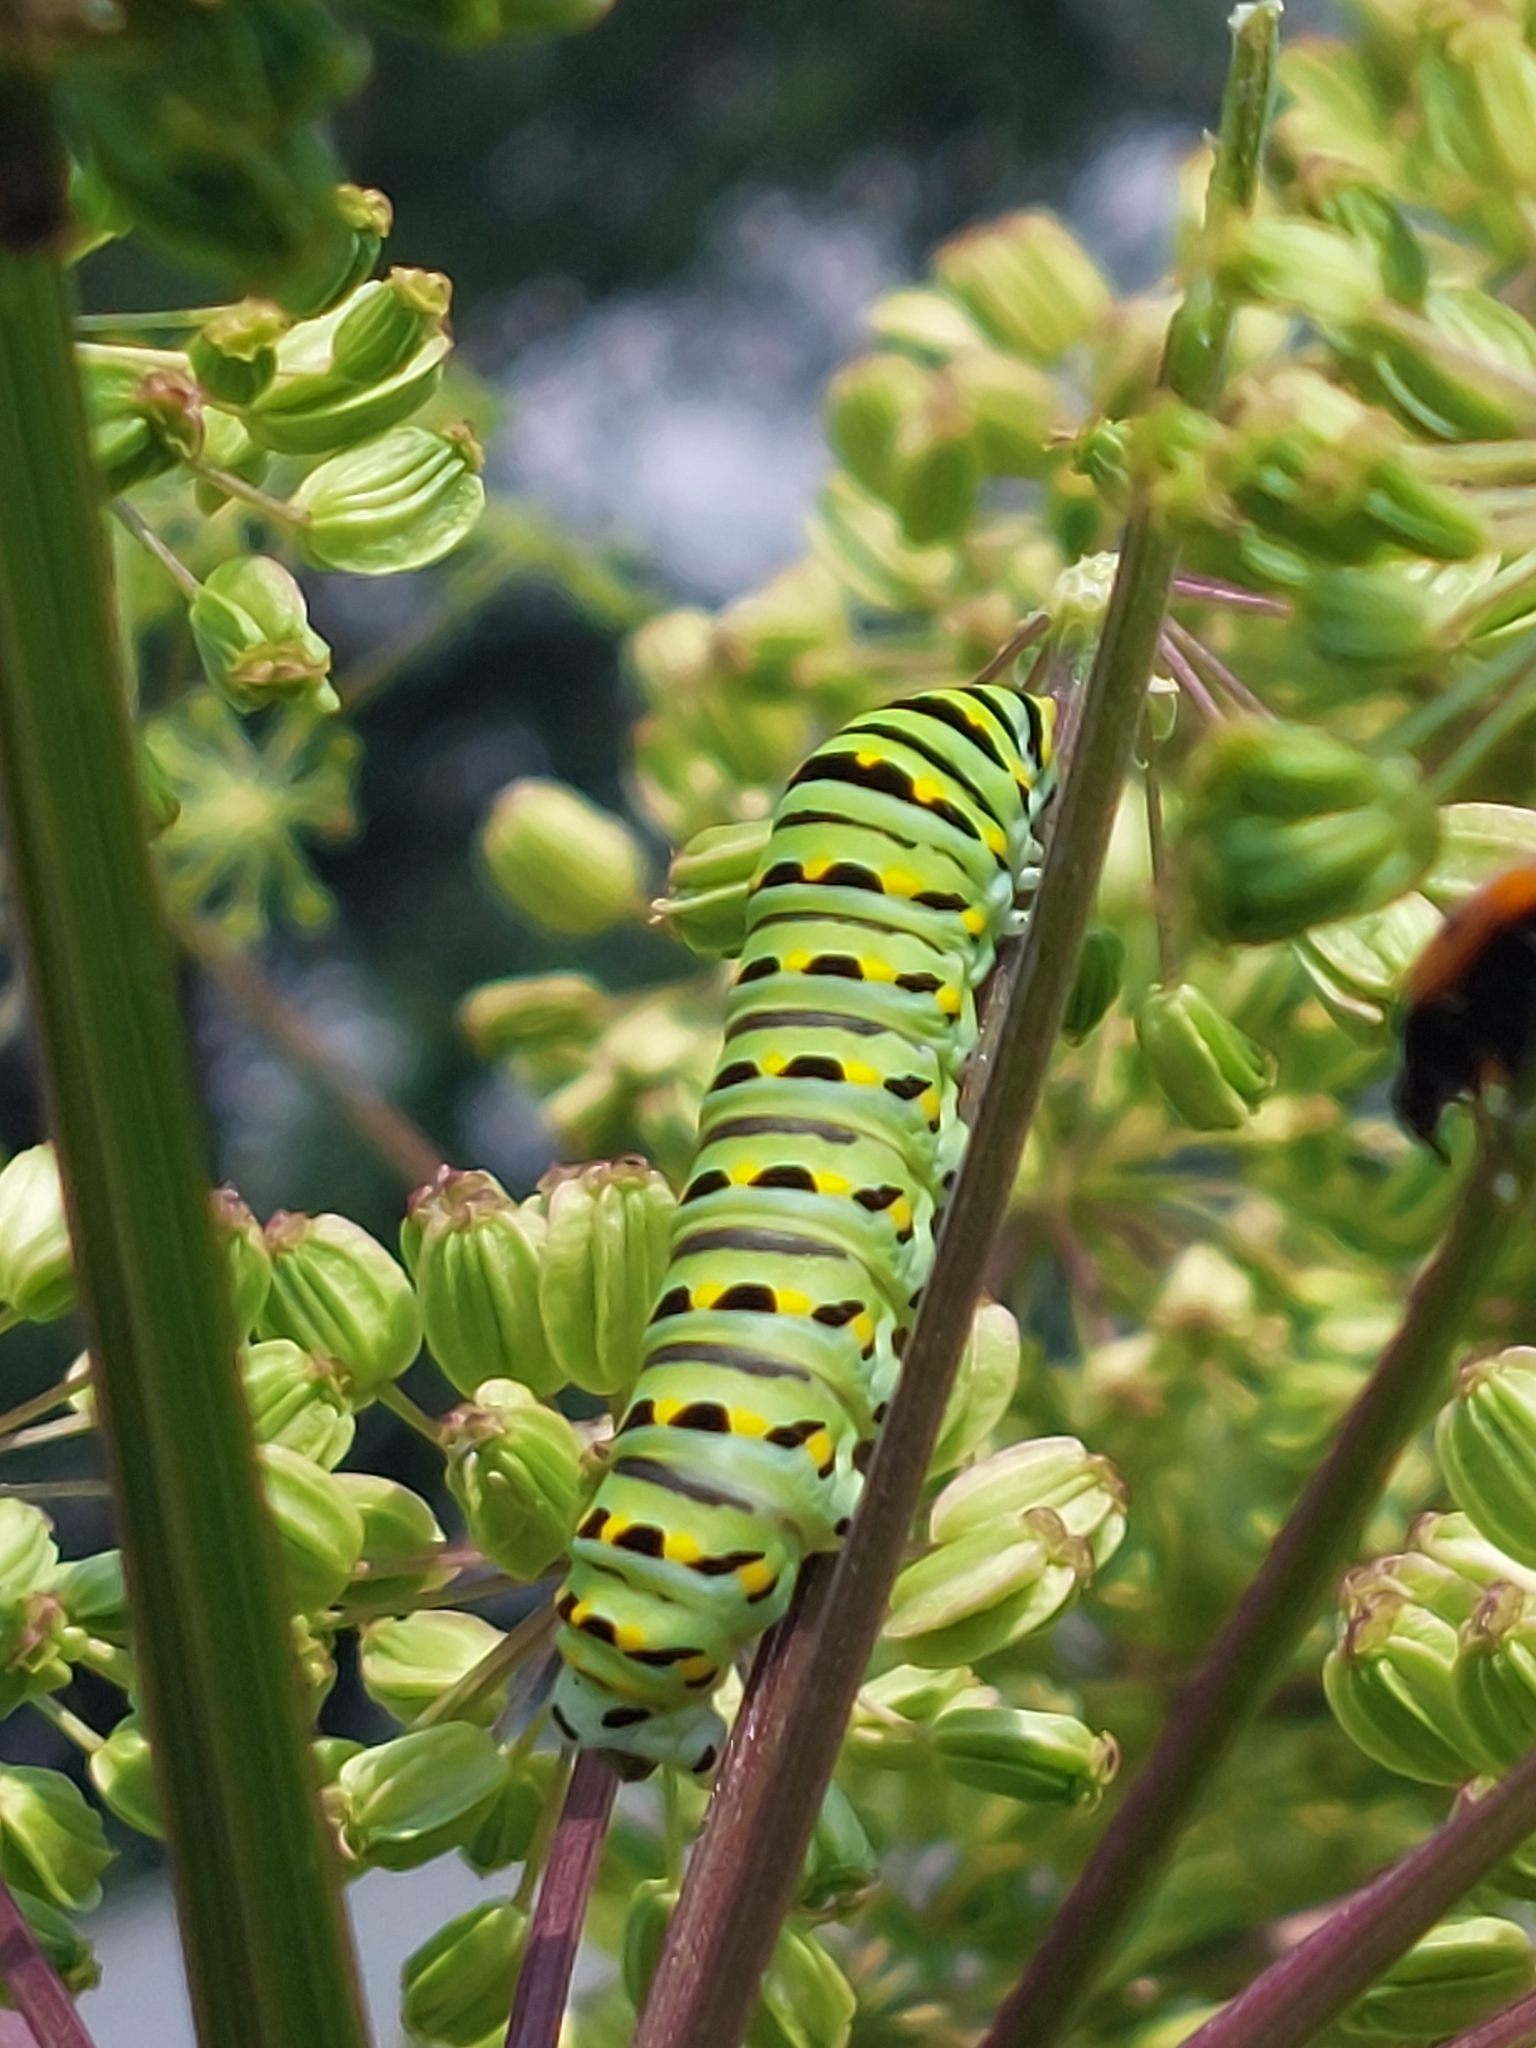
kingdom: Animalia
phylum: Arthropoda
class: Insecta
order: Lepidoptera
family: Papilionidae
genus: Papilio
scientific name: Papilio polyxenes
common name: Black swallowtail
